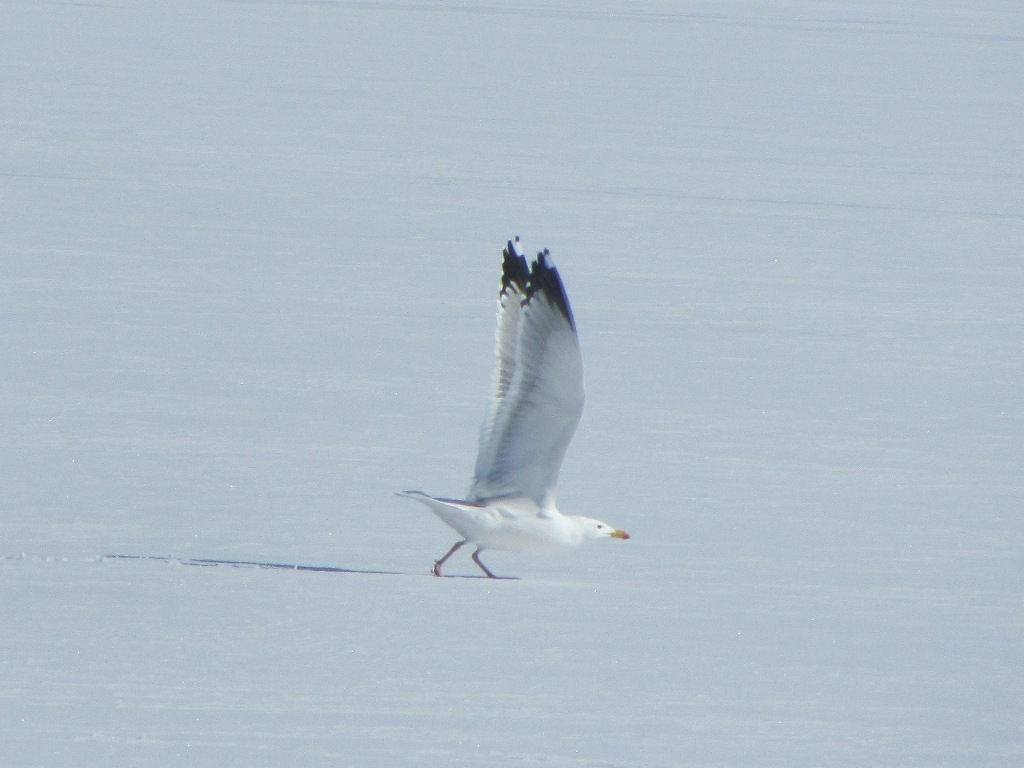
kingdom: Animalia
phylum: Chordata
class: Aves
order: Charadriiformes
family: Laridae
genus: Larus
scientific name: Larus vegae
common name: Vega gull
